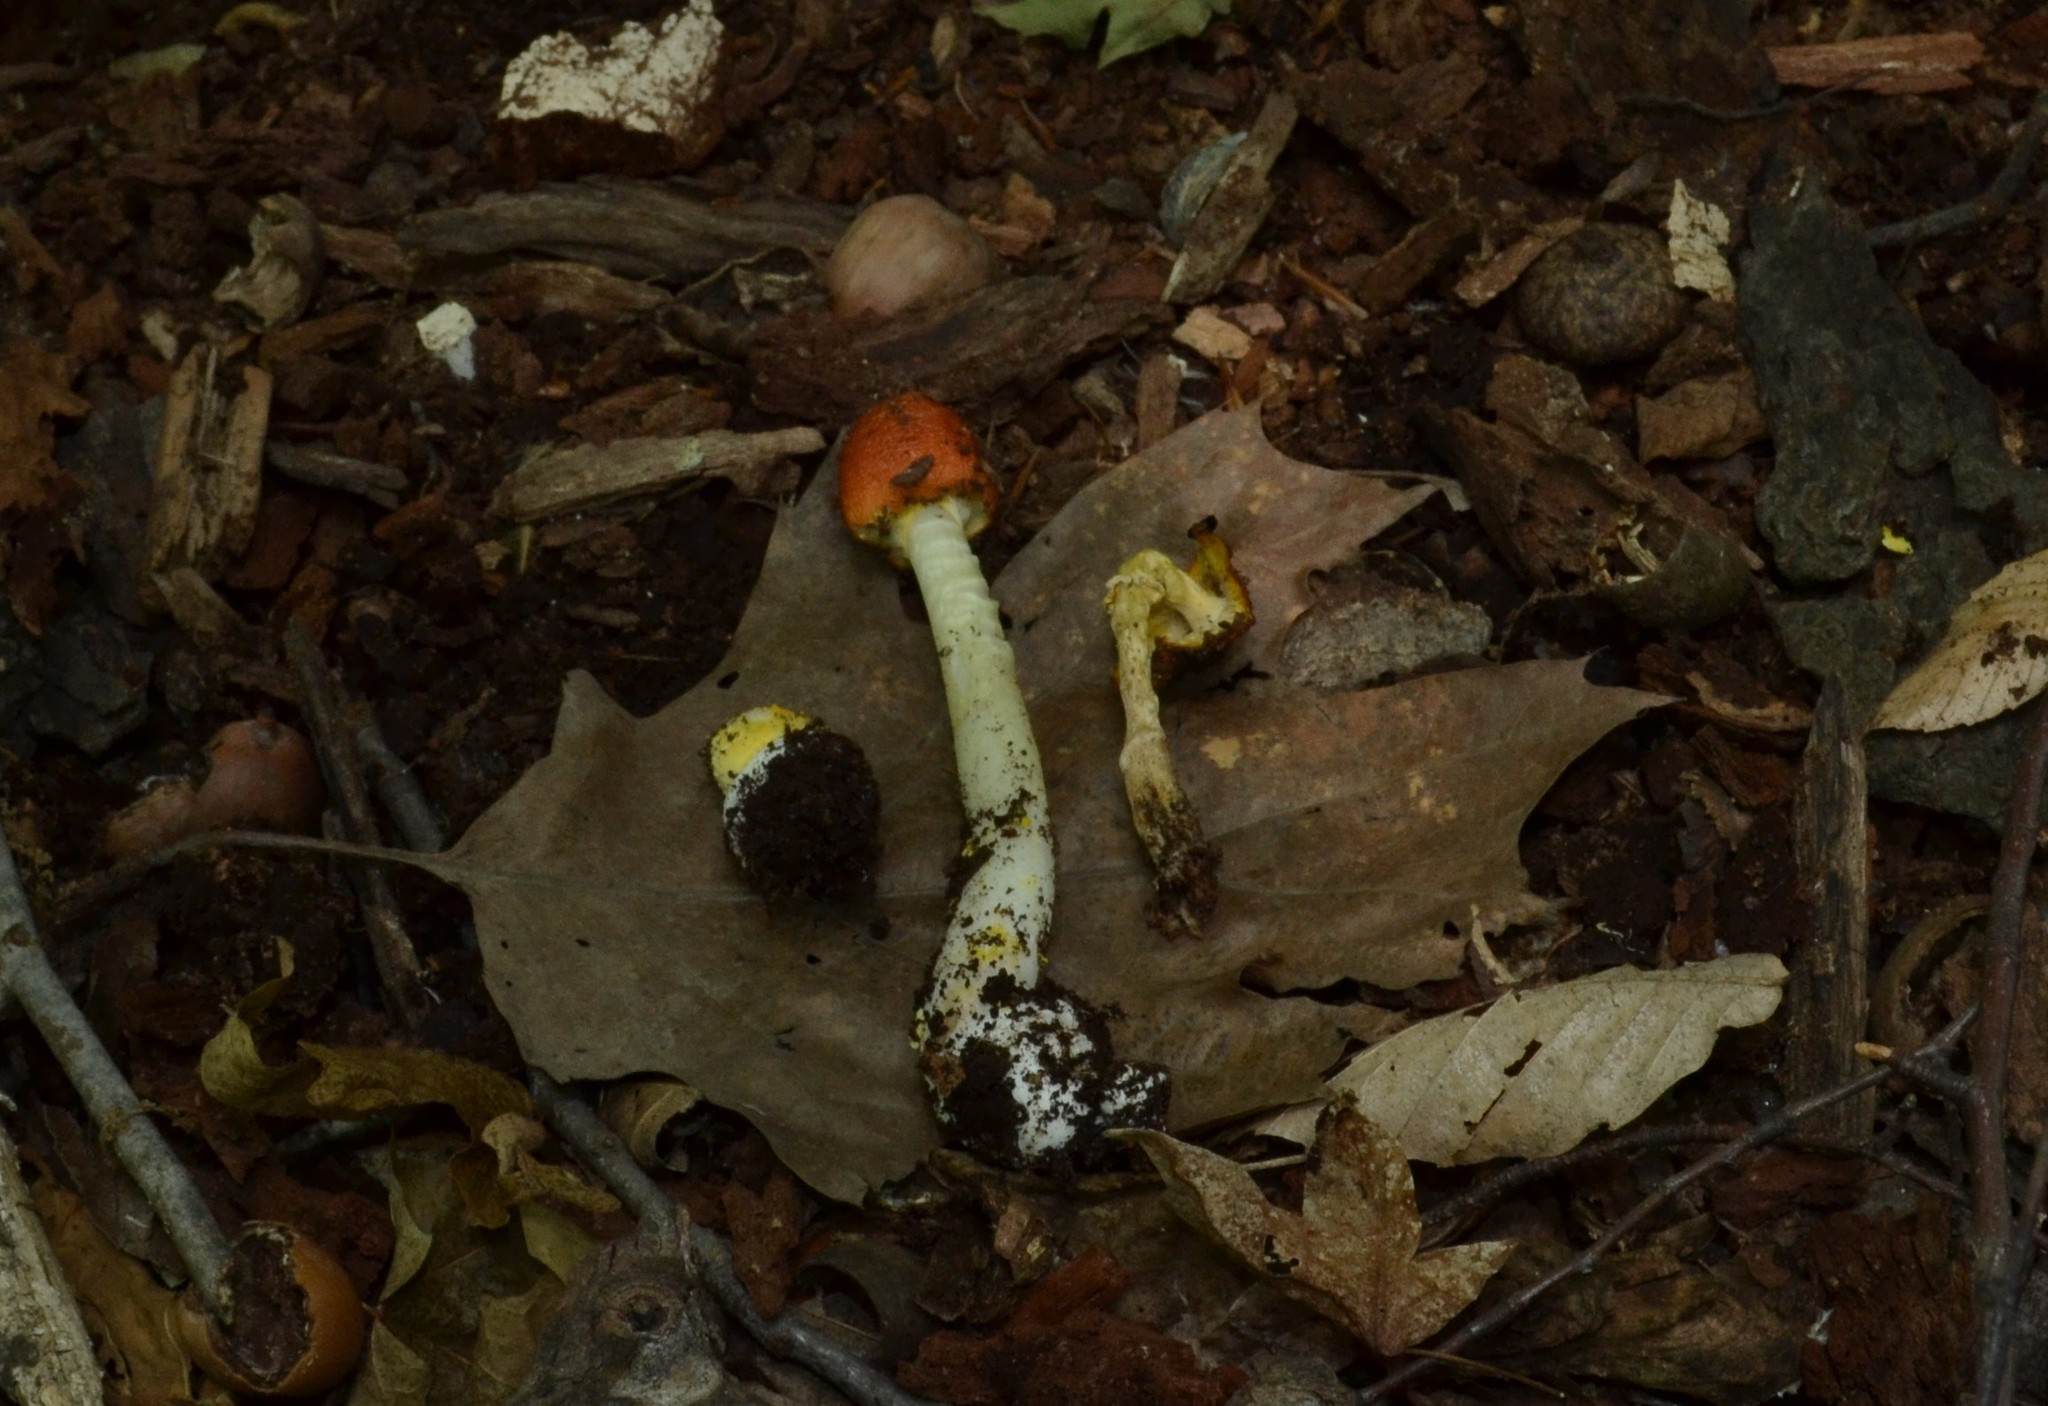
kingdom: Fungi
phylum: Basidiomycota
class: Agaricomycetes
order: Agaricales
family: Amanitaceae
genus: Amanita
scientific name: Amanita flavoconia
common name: Yellow patches
